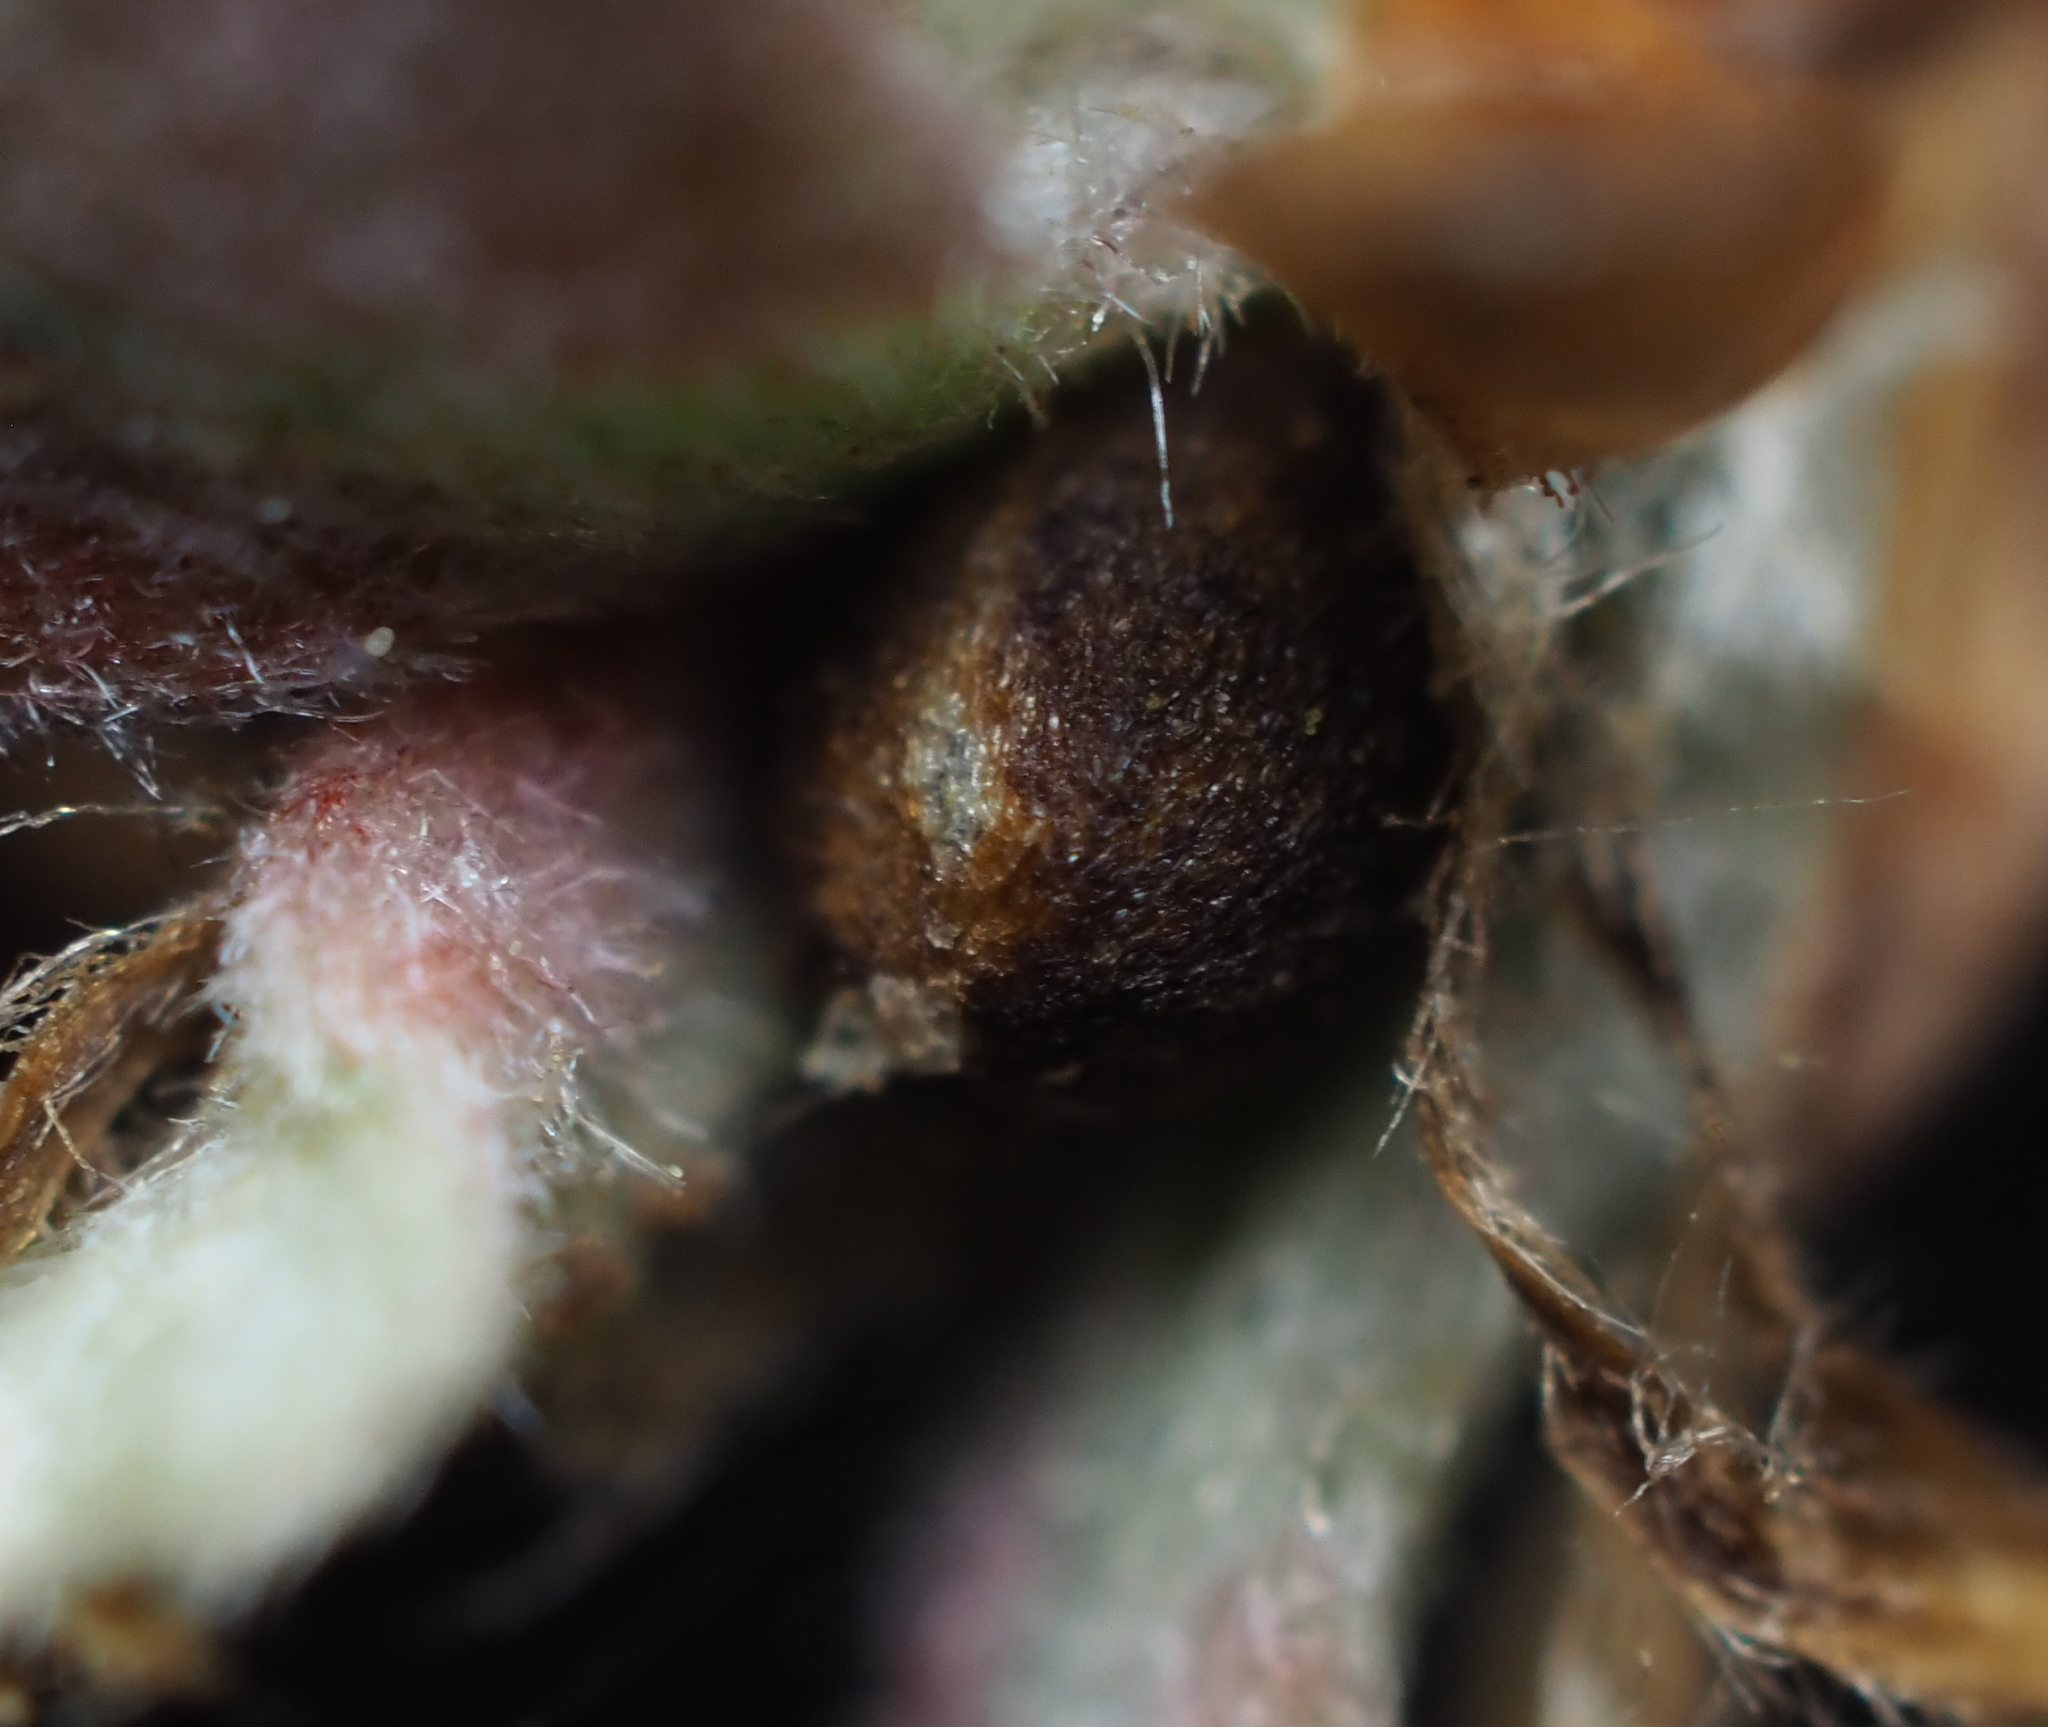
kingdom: Animalia
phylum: Arthropoda
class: Insecta
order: Hymenoptera
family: Cynipidae
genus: Philonix
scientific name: Philonix fulvicollis
